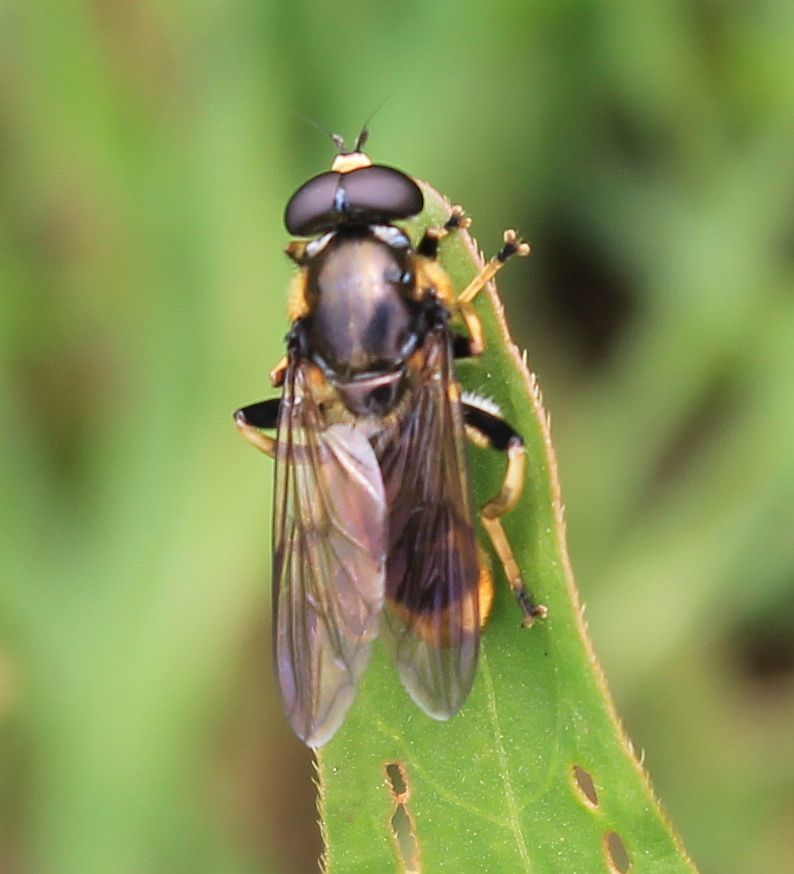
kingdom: Animalia
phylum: Arthropoda
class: Insecta
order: Diptera
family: Syrphidae
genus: Xylota
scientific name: Xylota sylvarum
